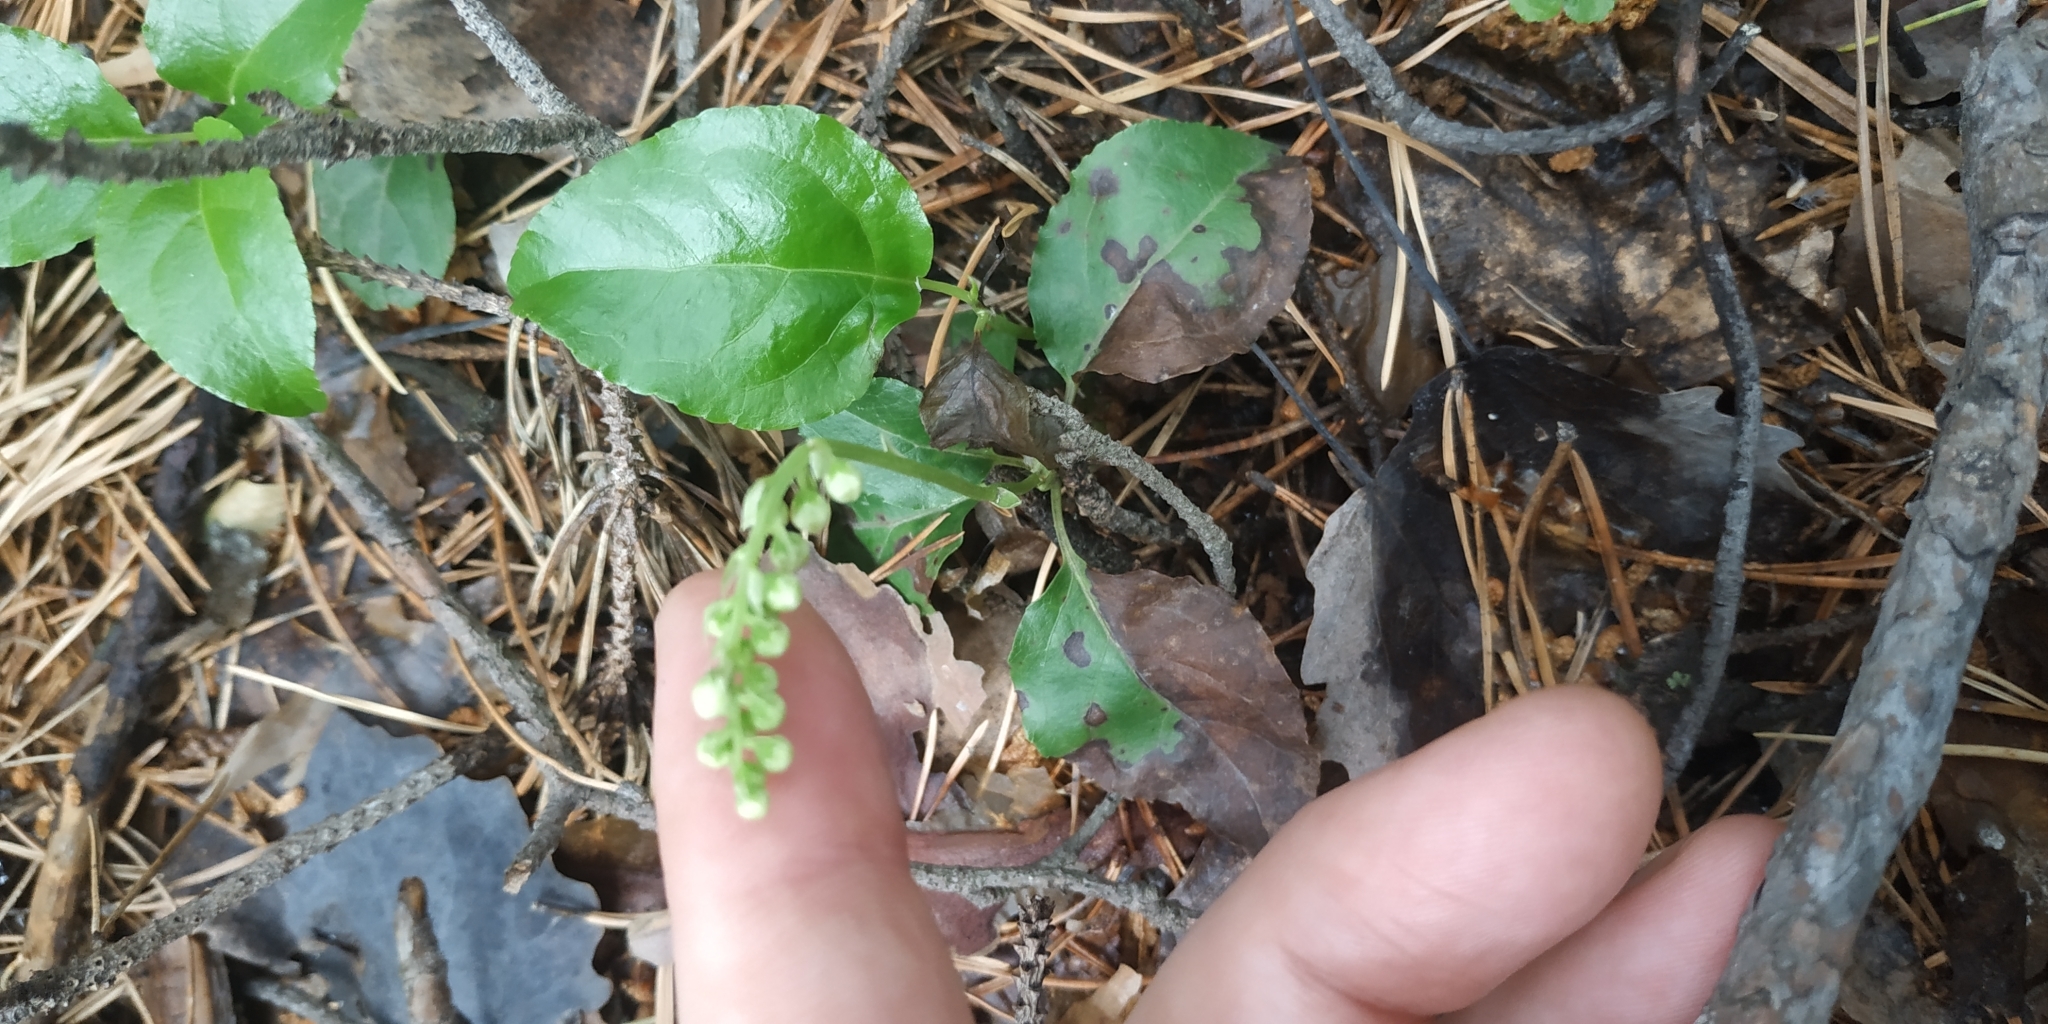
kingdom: Plantae
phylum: Tracheophyta
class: Magnoliopsida
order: Ericales
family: Ericaceae
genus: Orthilia
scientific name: Orthilia secunda
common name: One-sided orthilia
